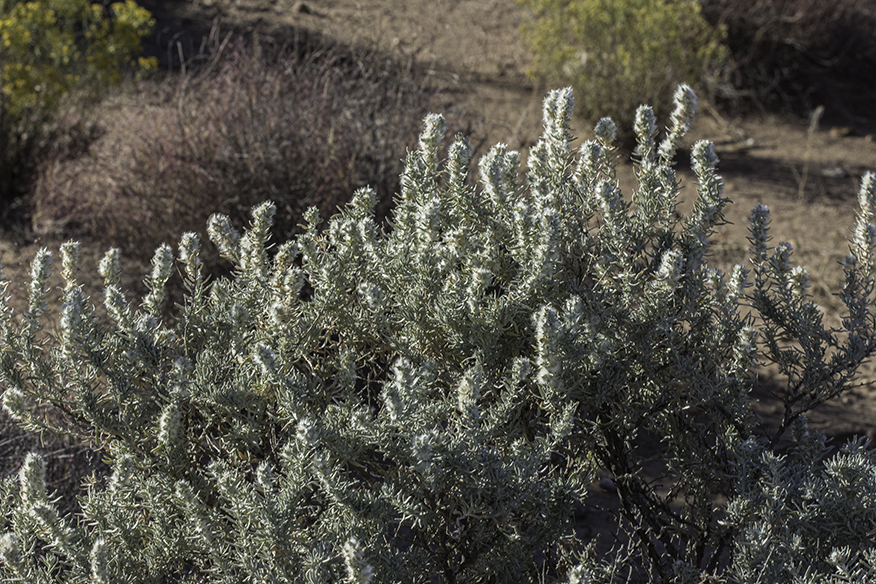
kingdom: Plantae
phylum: Tracheophyta
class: Magnoliopsida
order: Caryophyllales
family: Amaranthaceae
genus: Krascheninnikovia
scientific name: Krascheninnikovia lanata
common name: Winterfat
